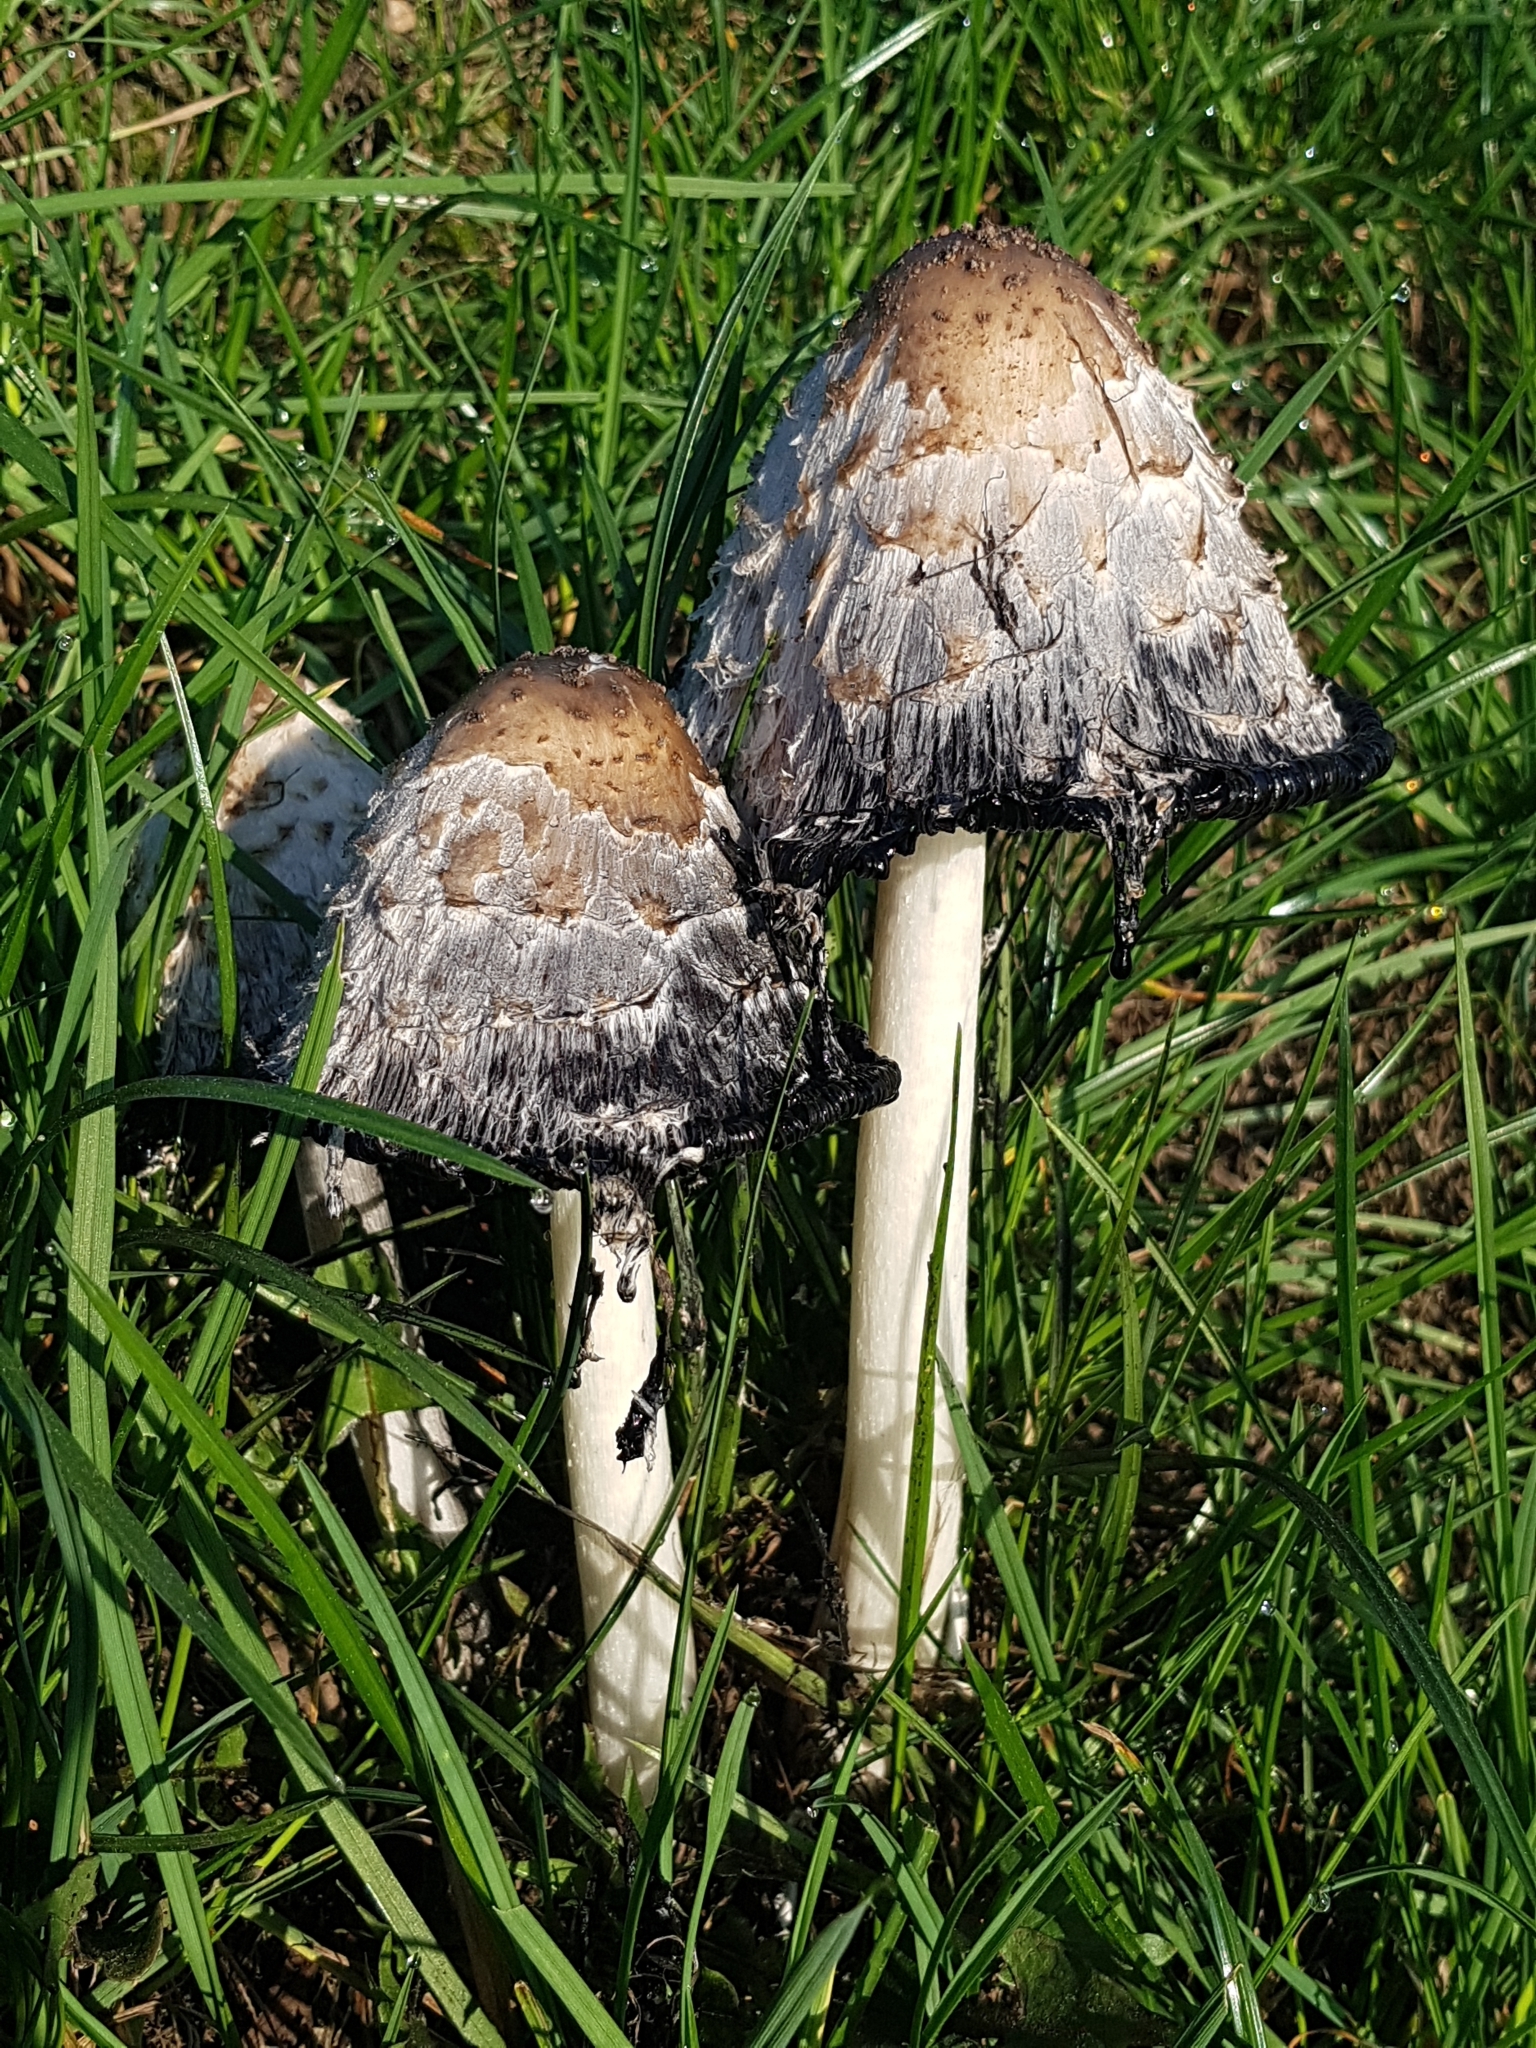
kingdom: Fungi
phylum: Basidiomycota
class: Agaricomycetes
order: Agaricales
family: Agaricaceae
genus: Coprinus
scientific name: Coprinus comatus
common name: Lawyer's wig
